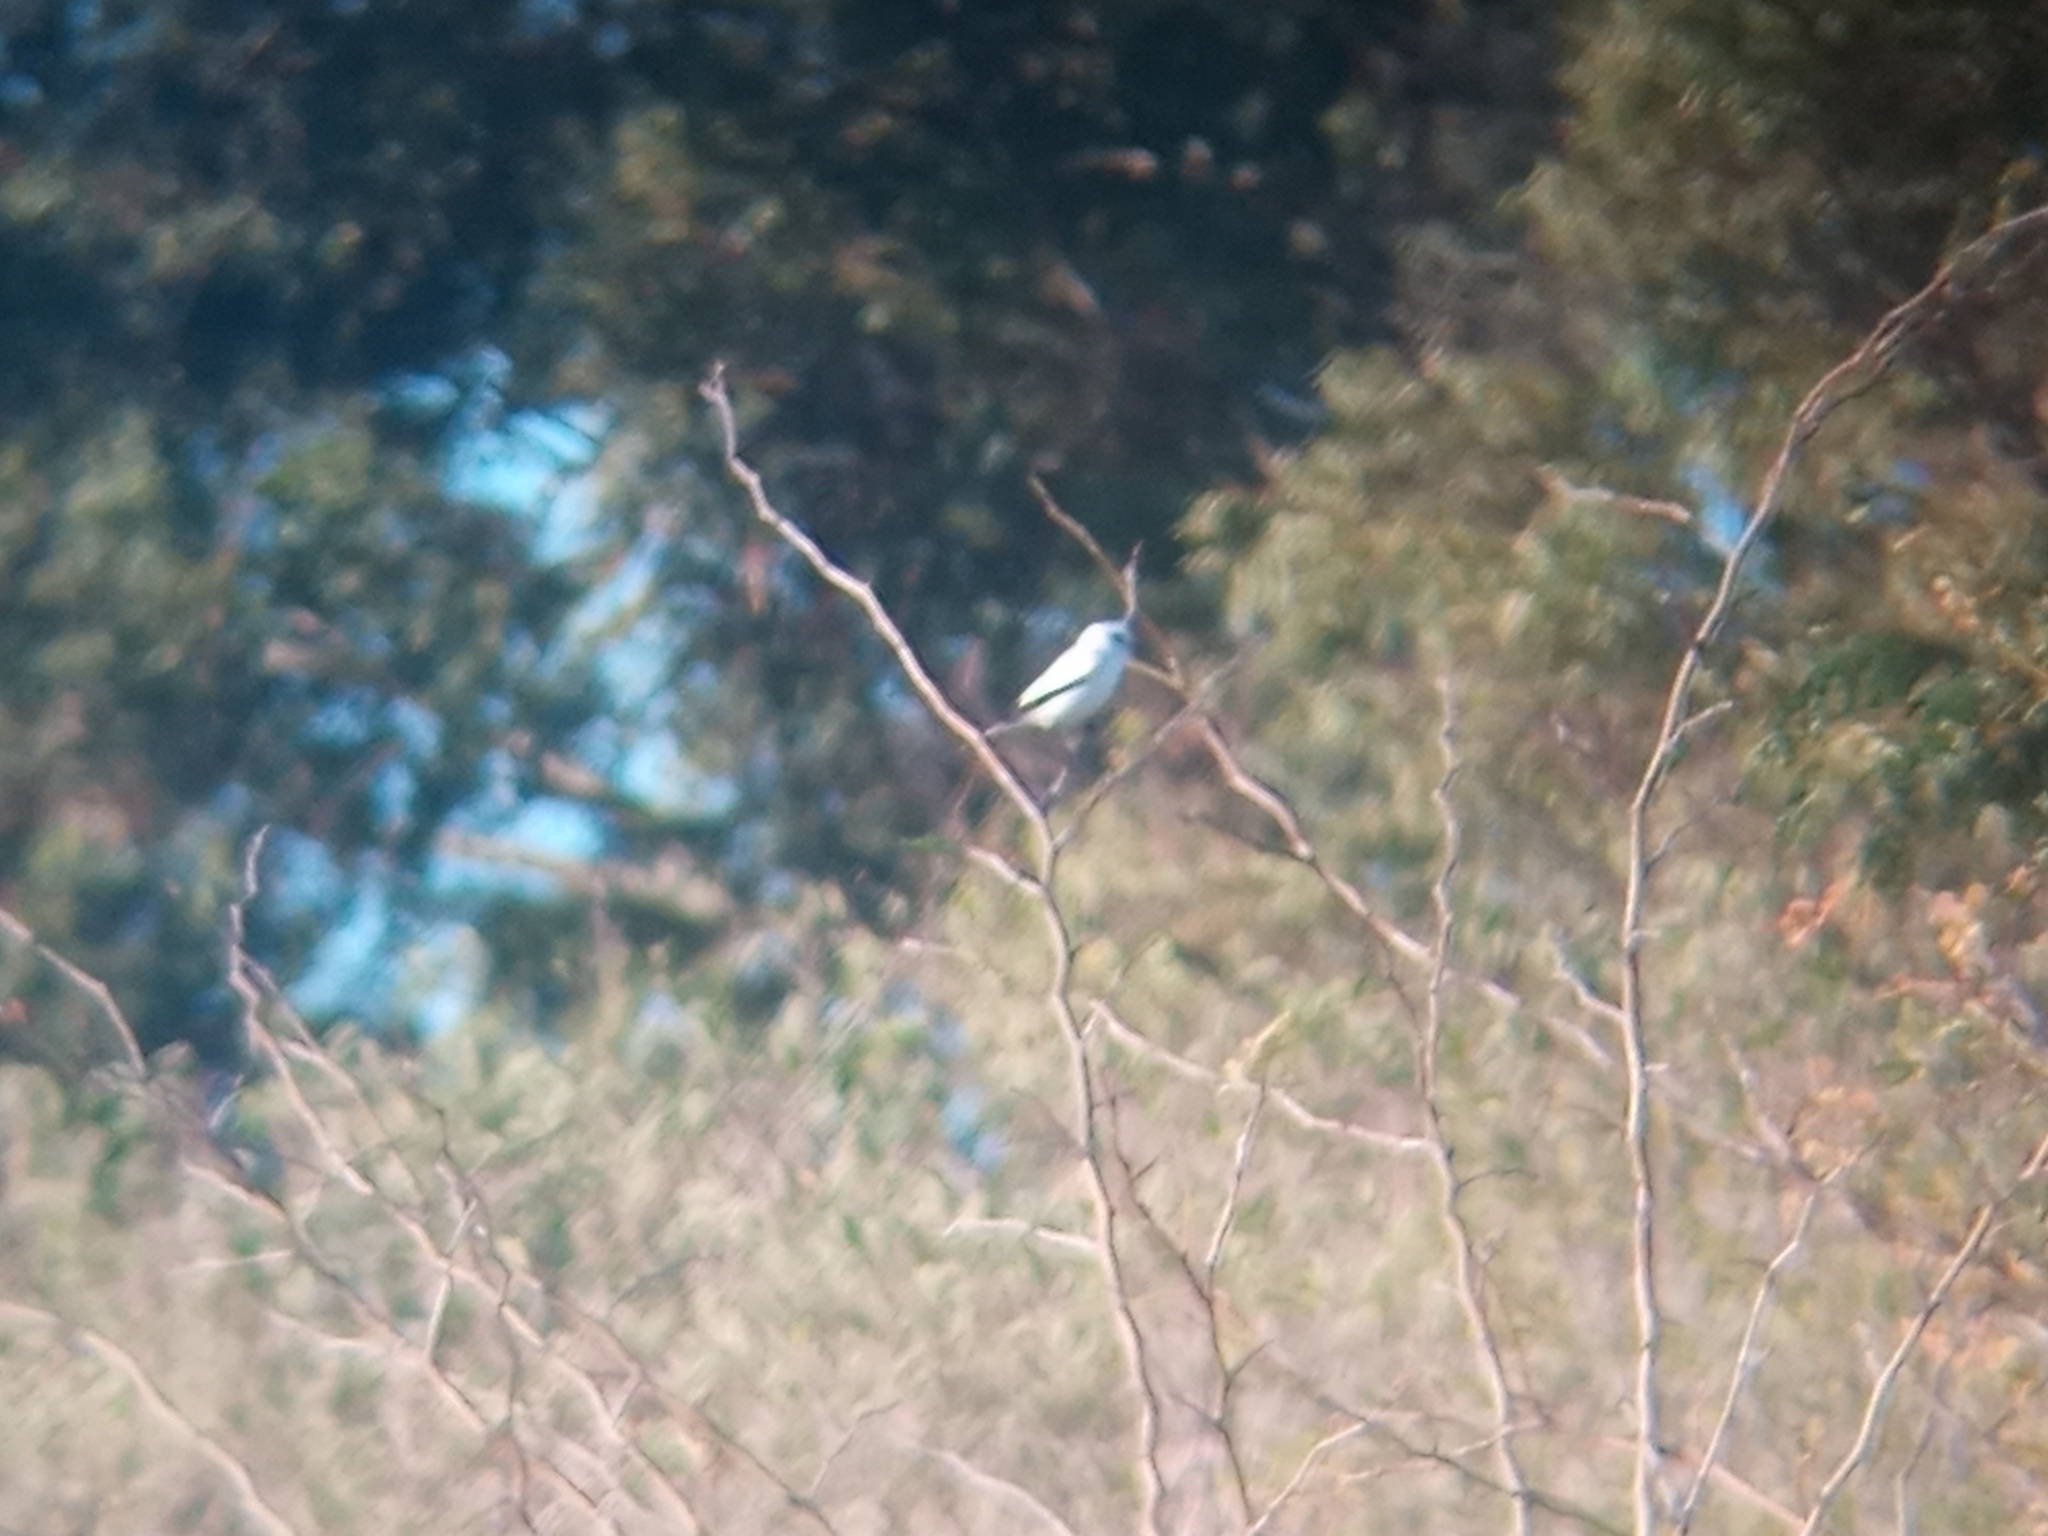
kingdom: Animalia
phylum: Chordata
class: Aves
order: Passeriformes
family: Tyrannidae
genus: Xolmis
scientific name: Xolmis irupero
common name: White monjita
